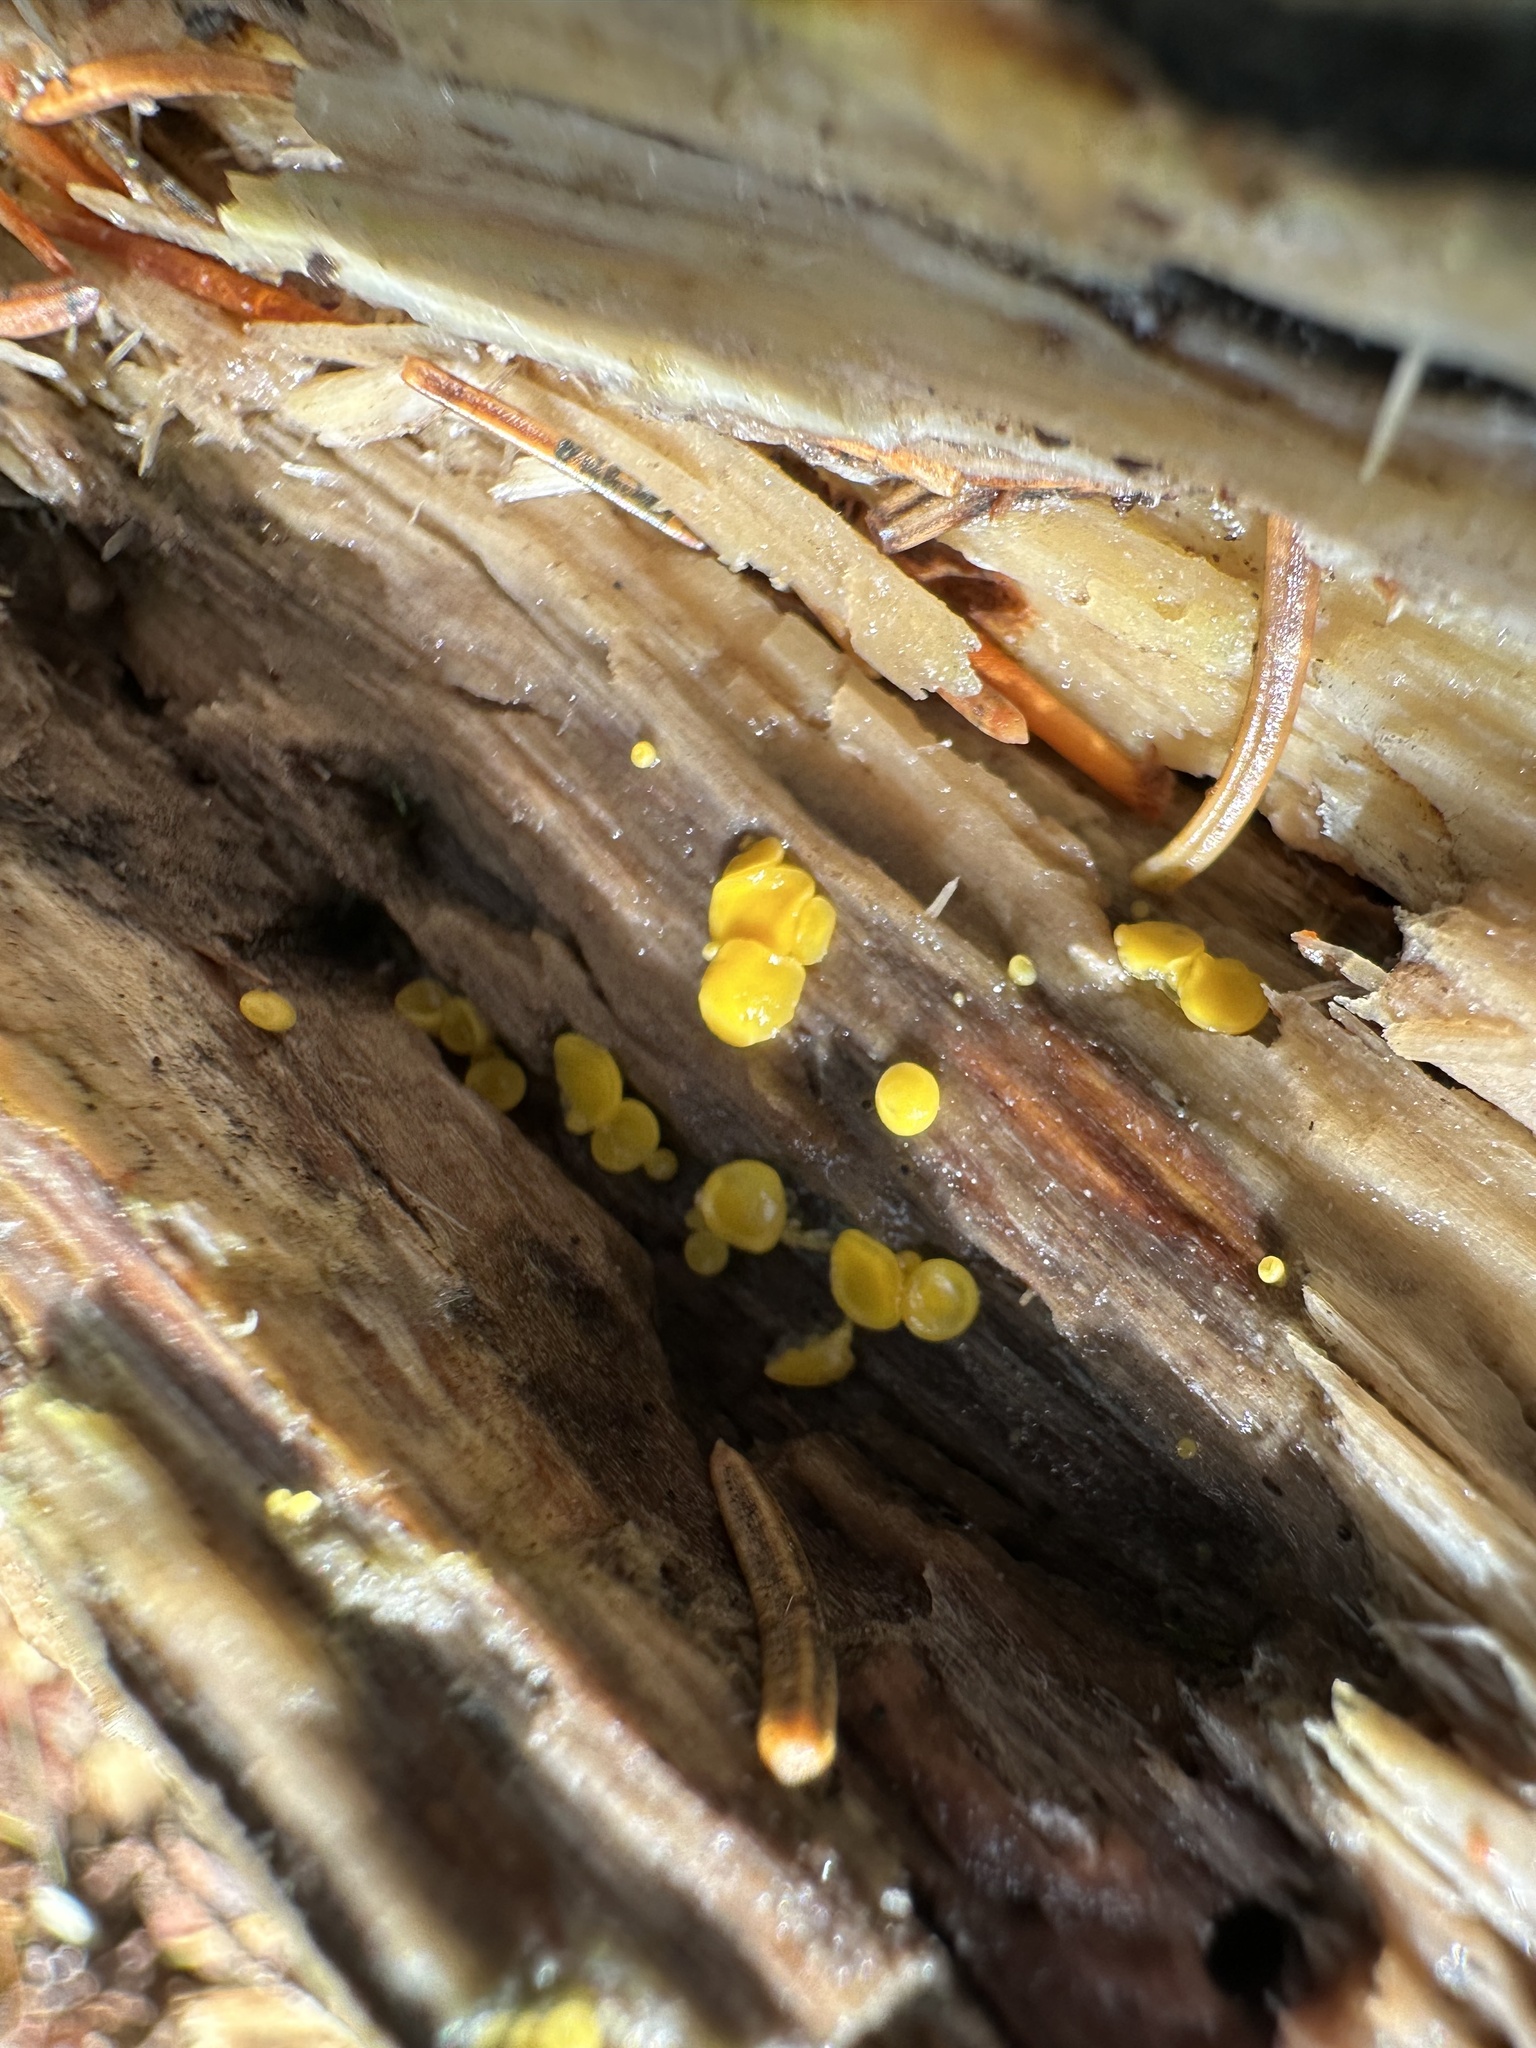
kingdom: Fungi
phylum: Ascomycota
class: Leotiomycetes
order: Helotiales
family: Pezizellaceae
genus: Calycina
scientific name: Calycina citrina
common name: Yellow fairy cups
